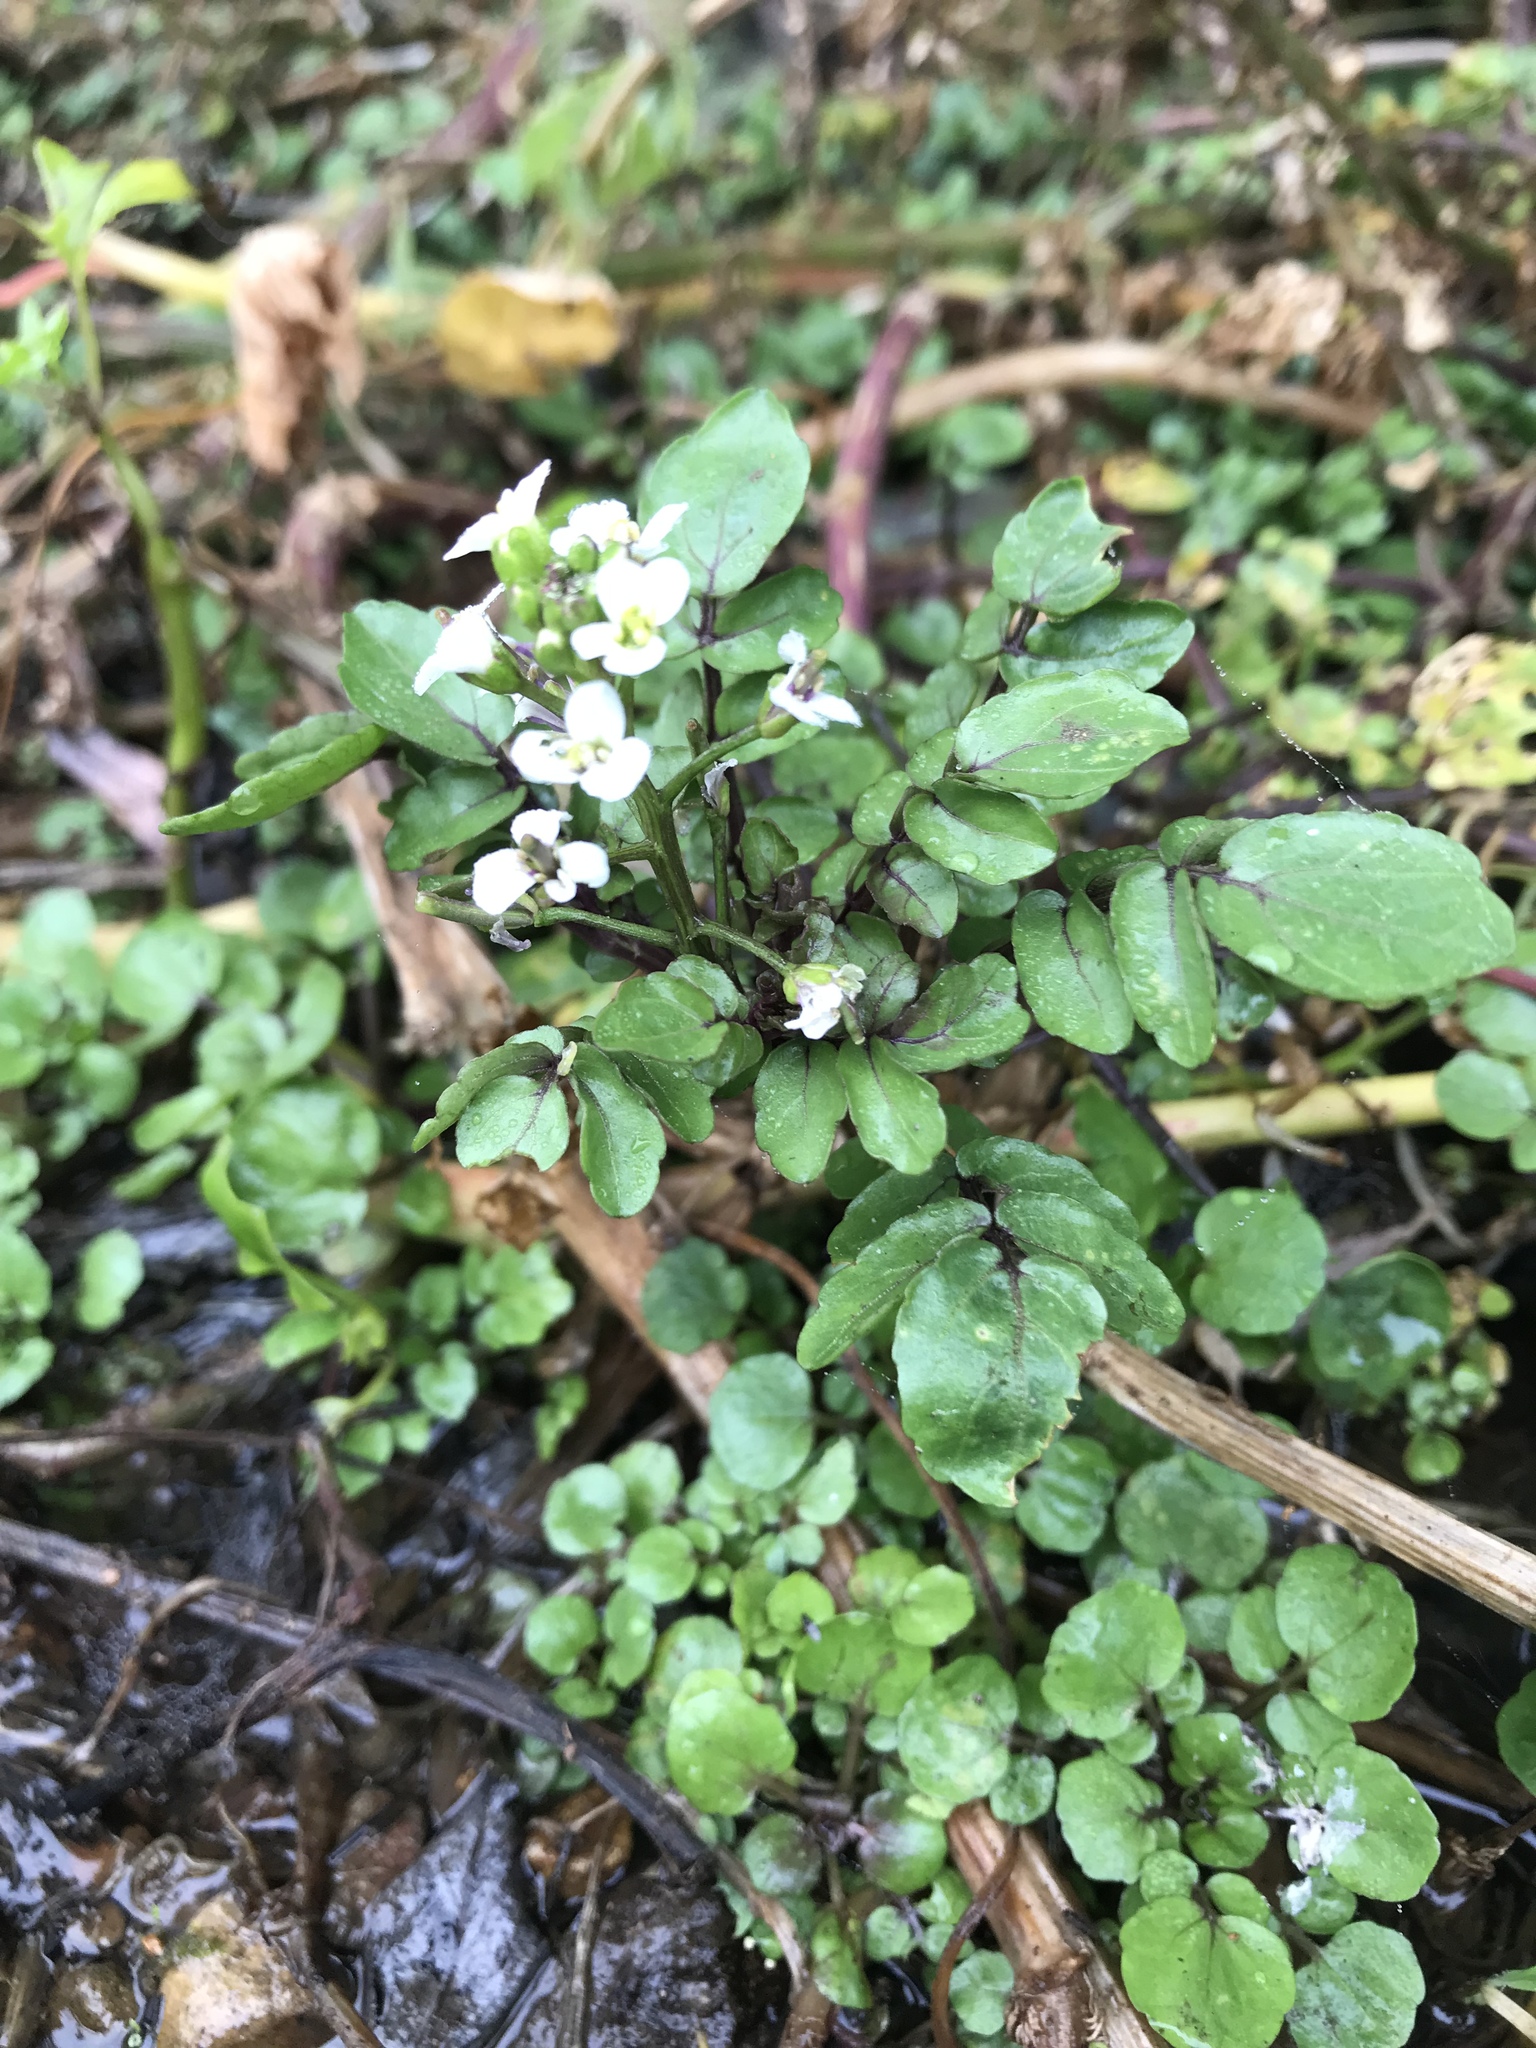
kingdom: Plantae
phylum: Tracheophyta
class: Magnoliopsida
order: Brassicales
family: Brassicaceae
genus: Nasturtium
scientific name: Nasturtium officinale
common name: Watercress
